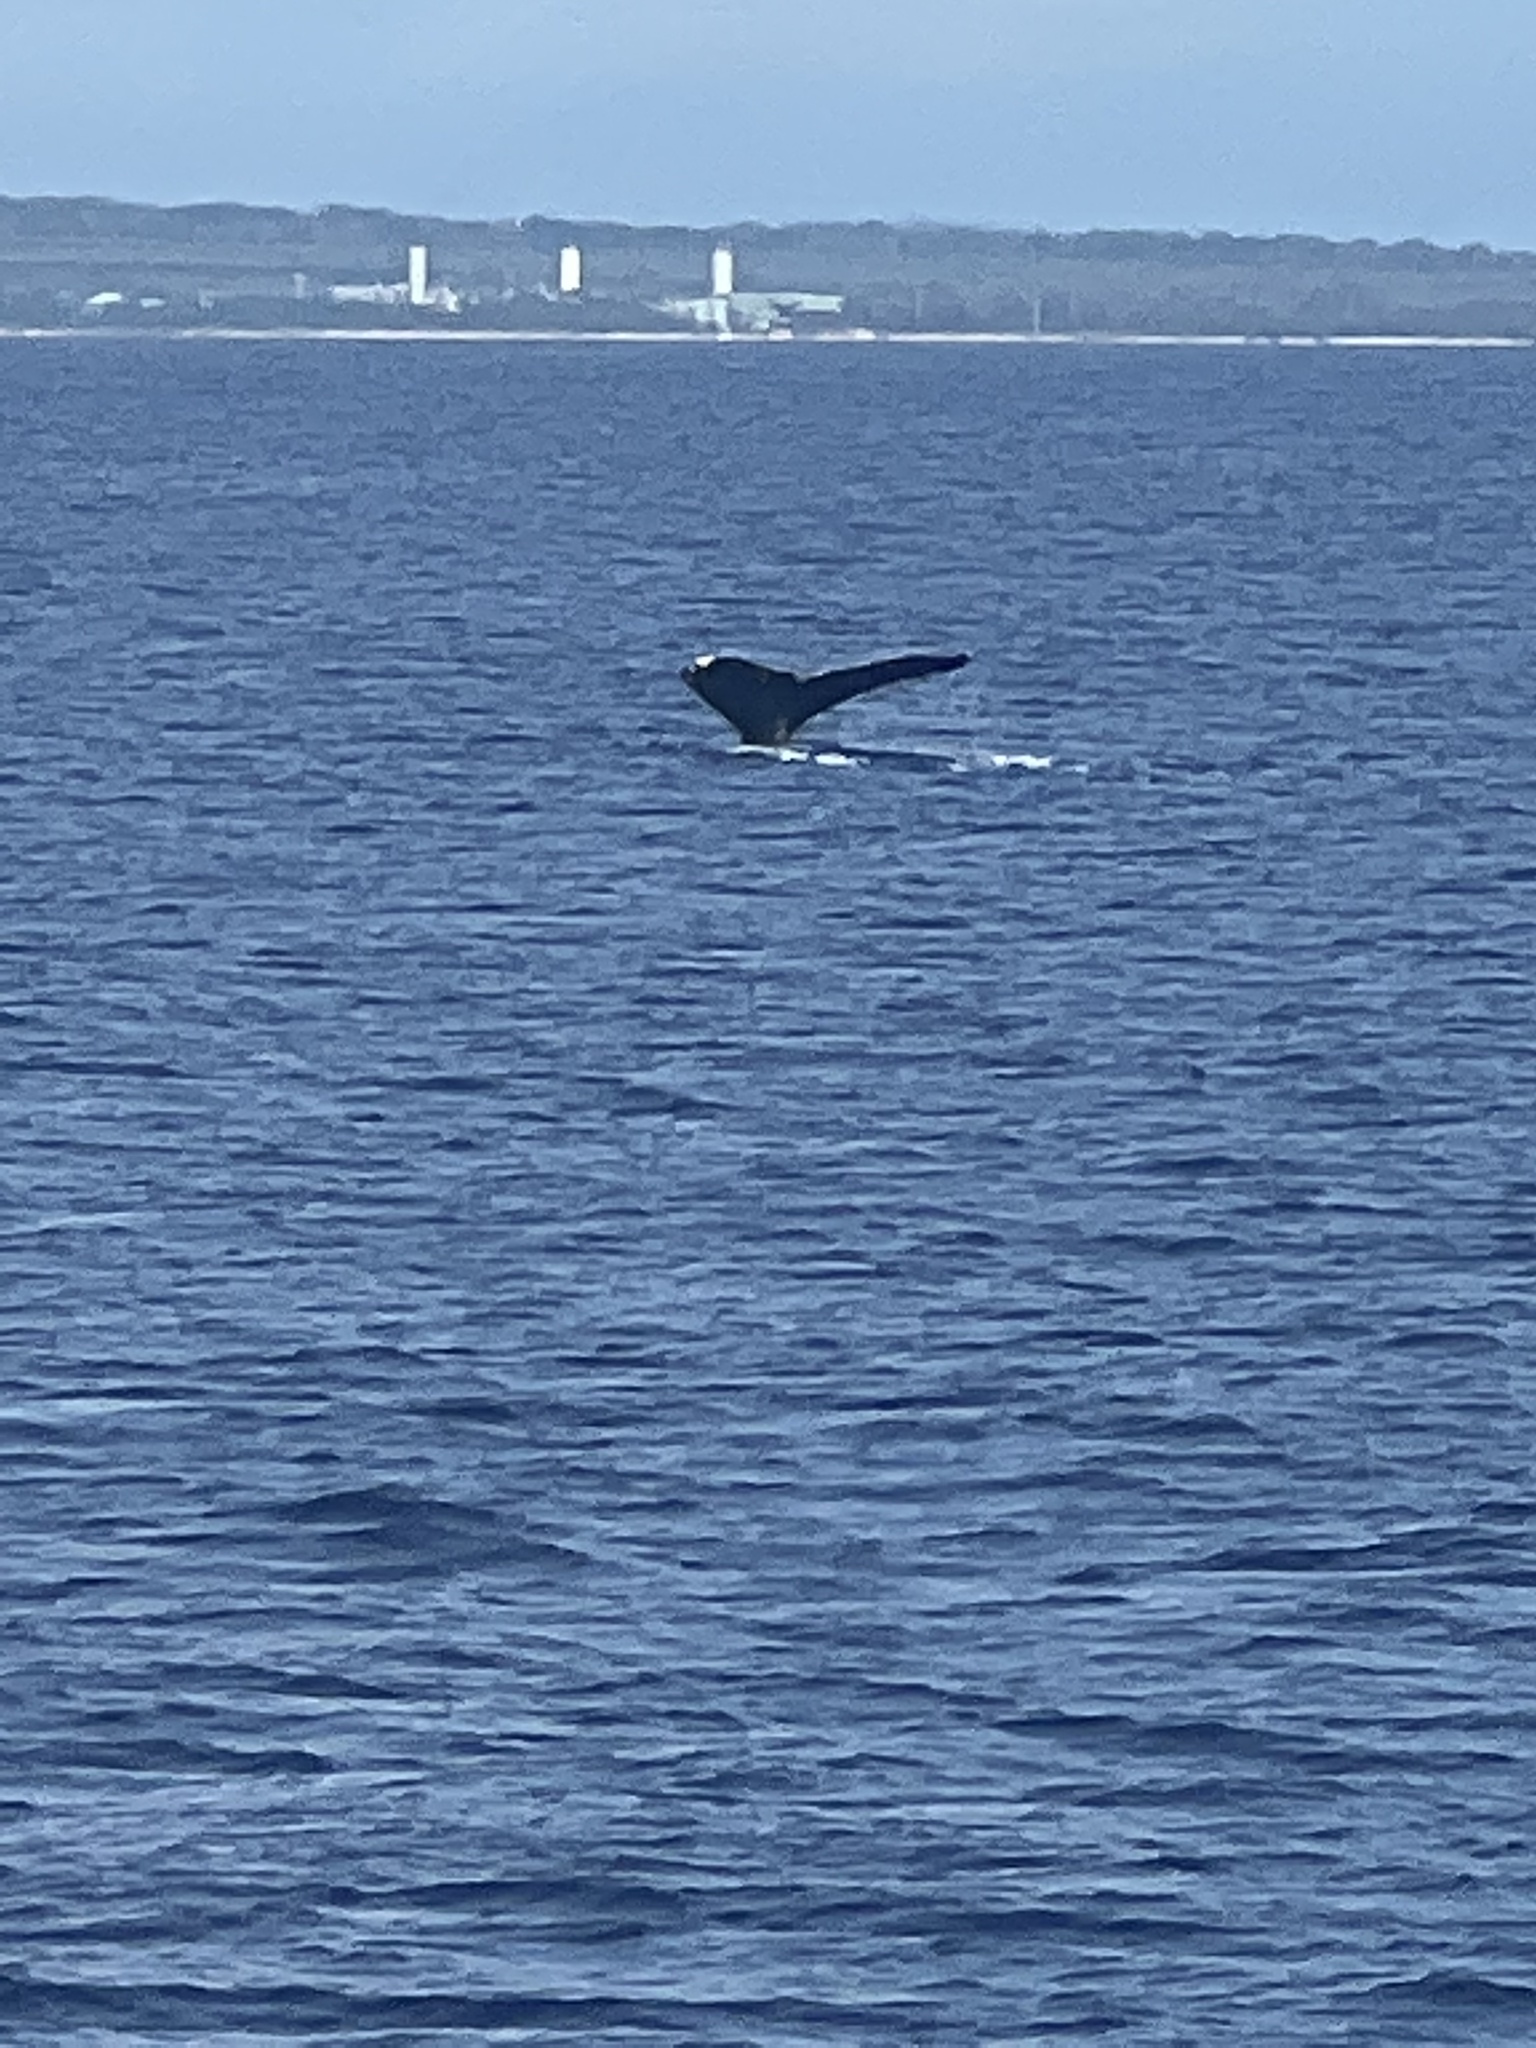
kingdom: Animalia
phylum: Chordata
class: Mammalia
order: Cetacea
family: Balaenopteridae
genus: Megaptera
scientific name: Megaptera novaeangliae
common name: Humpback whale
